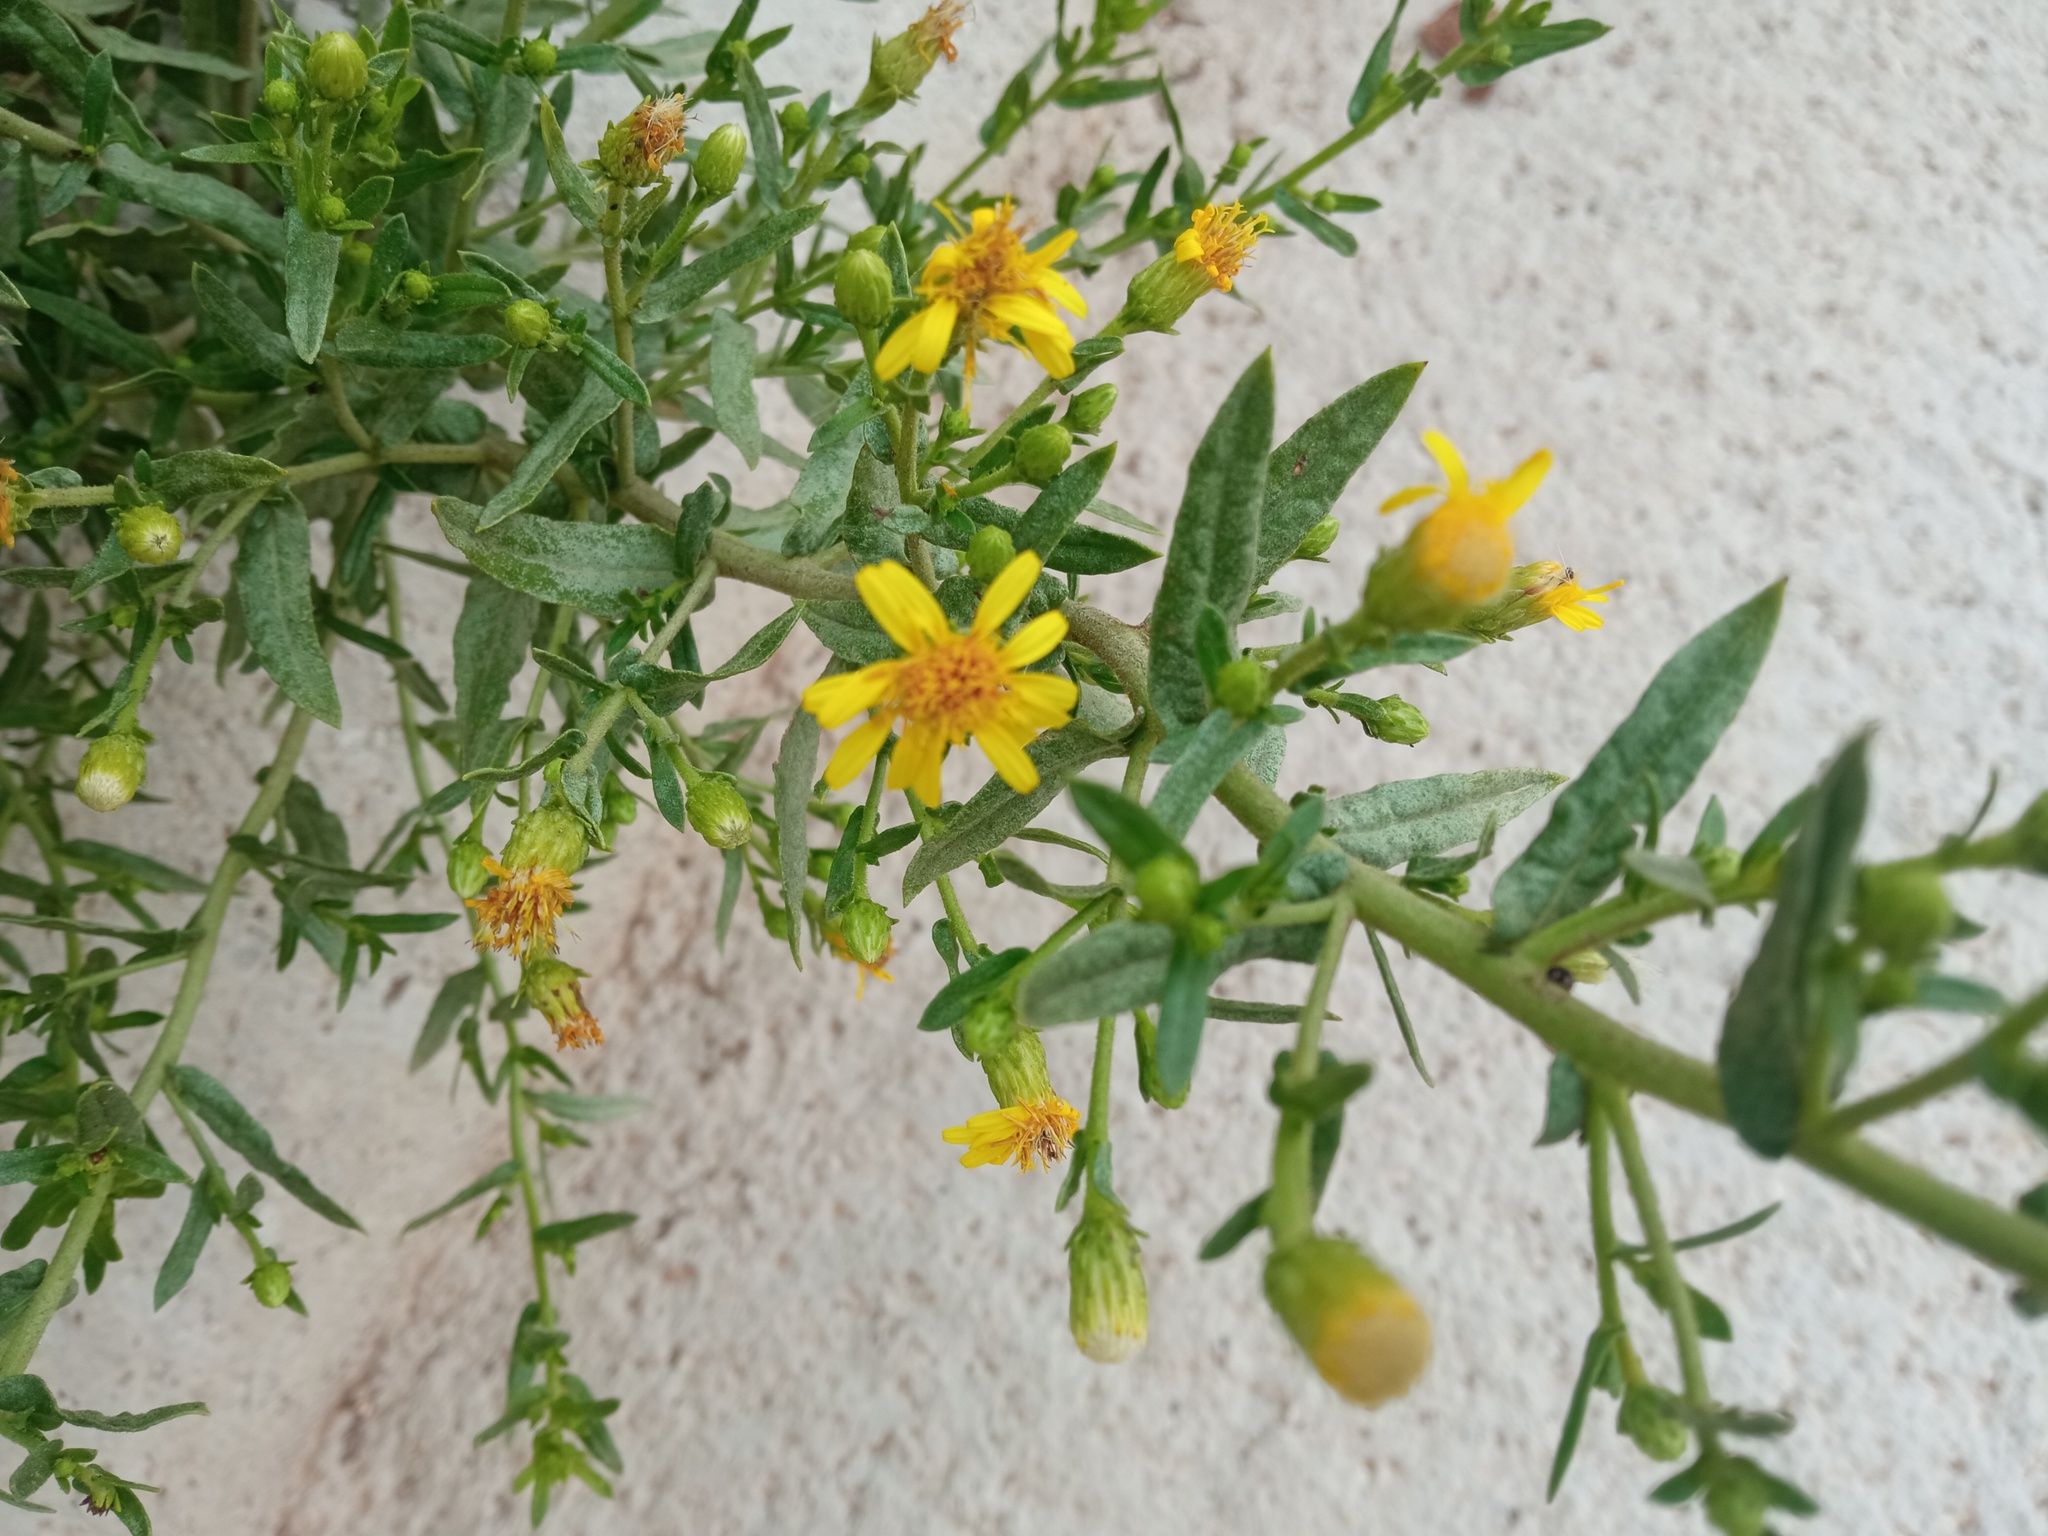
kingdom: Plantae
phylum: Tracheophyta
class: Magnoliopsida
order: Asterales
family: Asteraceae
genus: Dittrichia
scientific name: Dittrichia viscosa
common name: Woody fleabane
